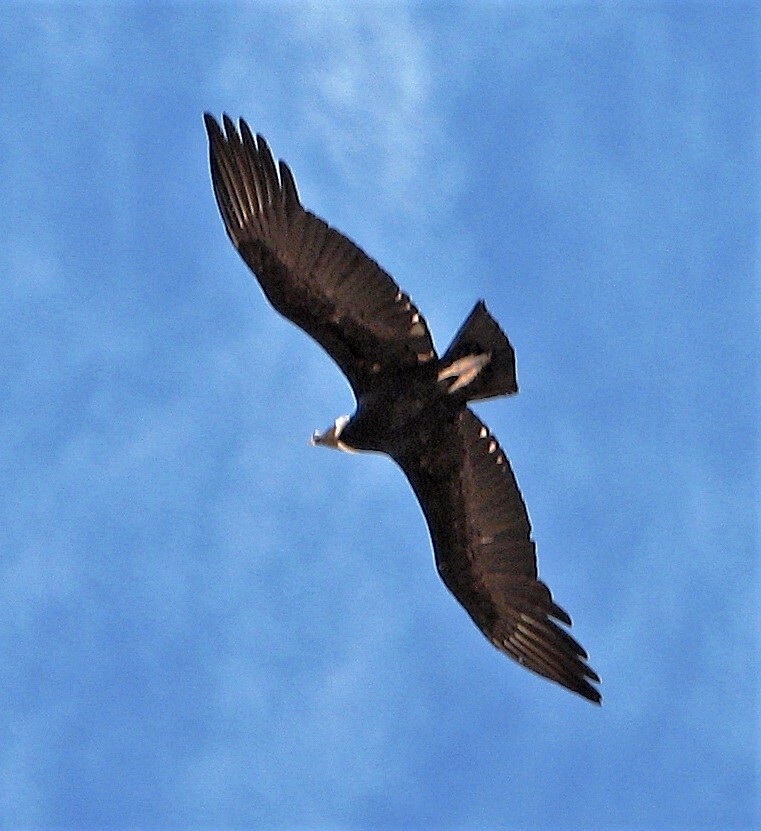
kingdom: Animalia
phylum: Chordata
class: Aves
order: Accipitriformes
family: Cathartidae
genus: Vultur
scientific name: Vultur gryphus
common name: Andean condor
